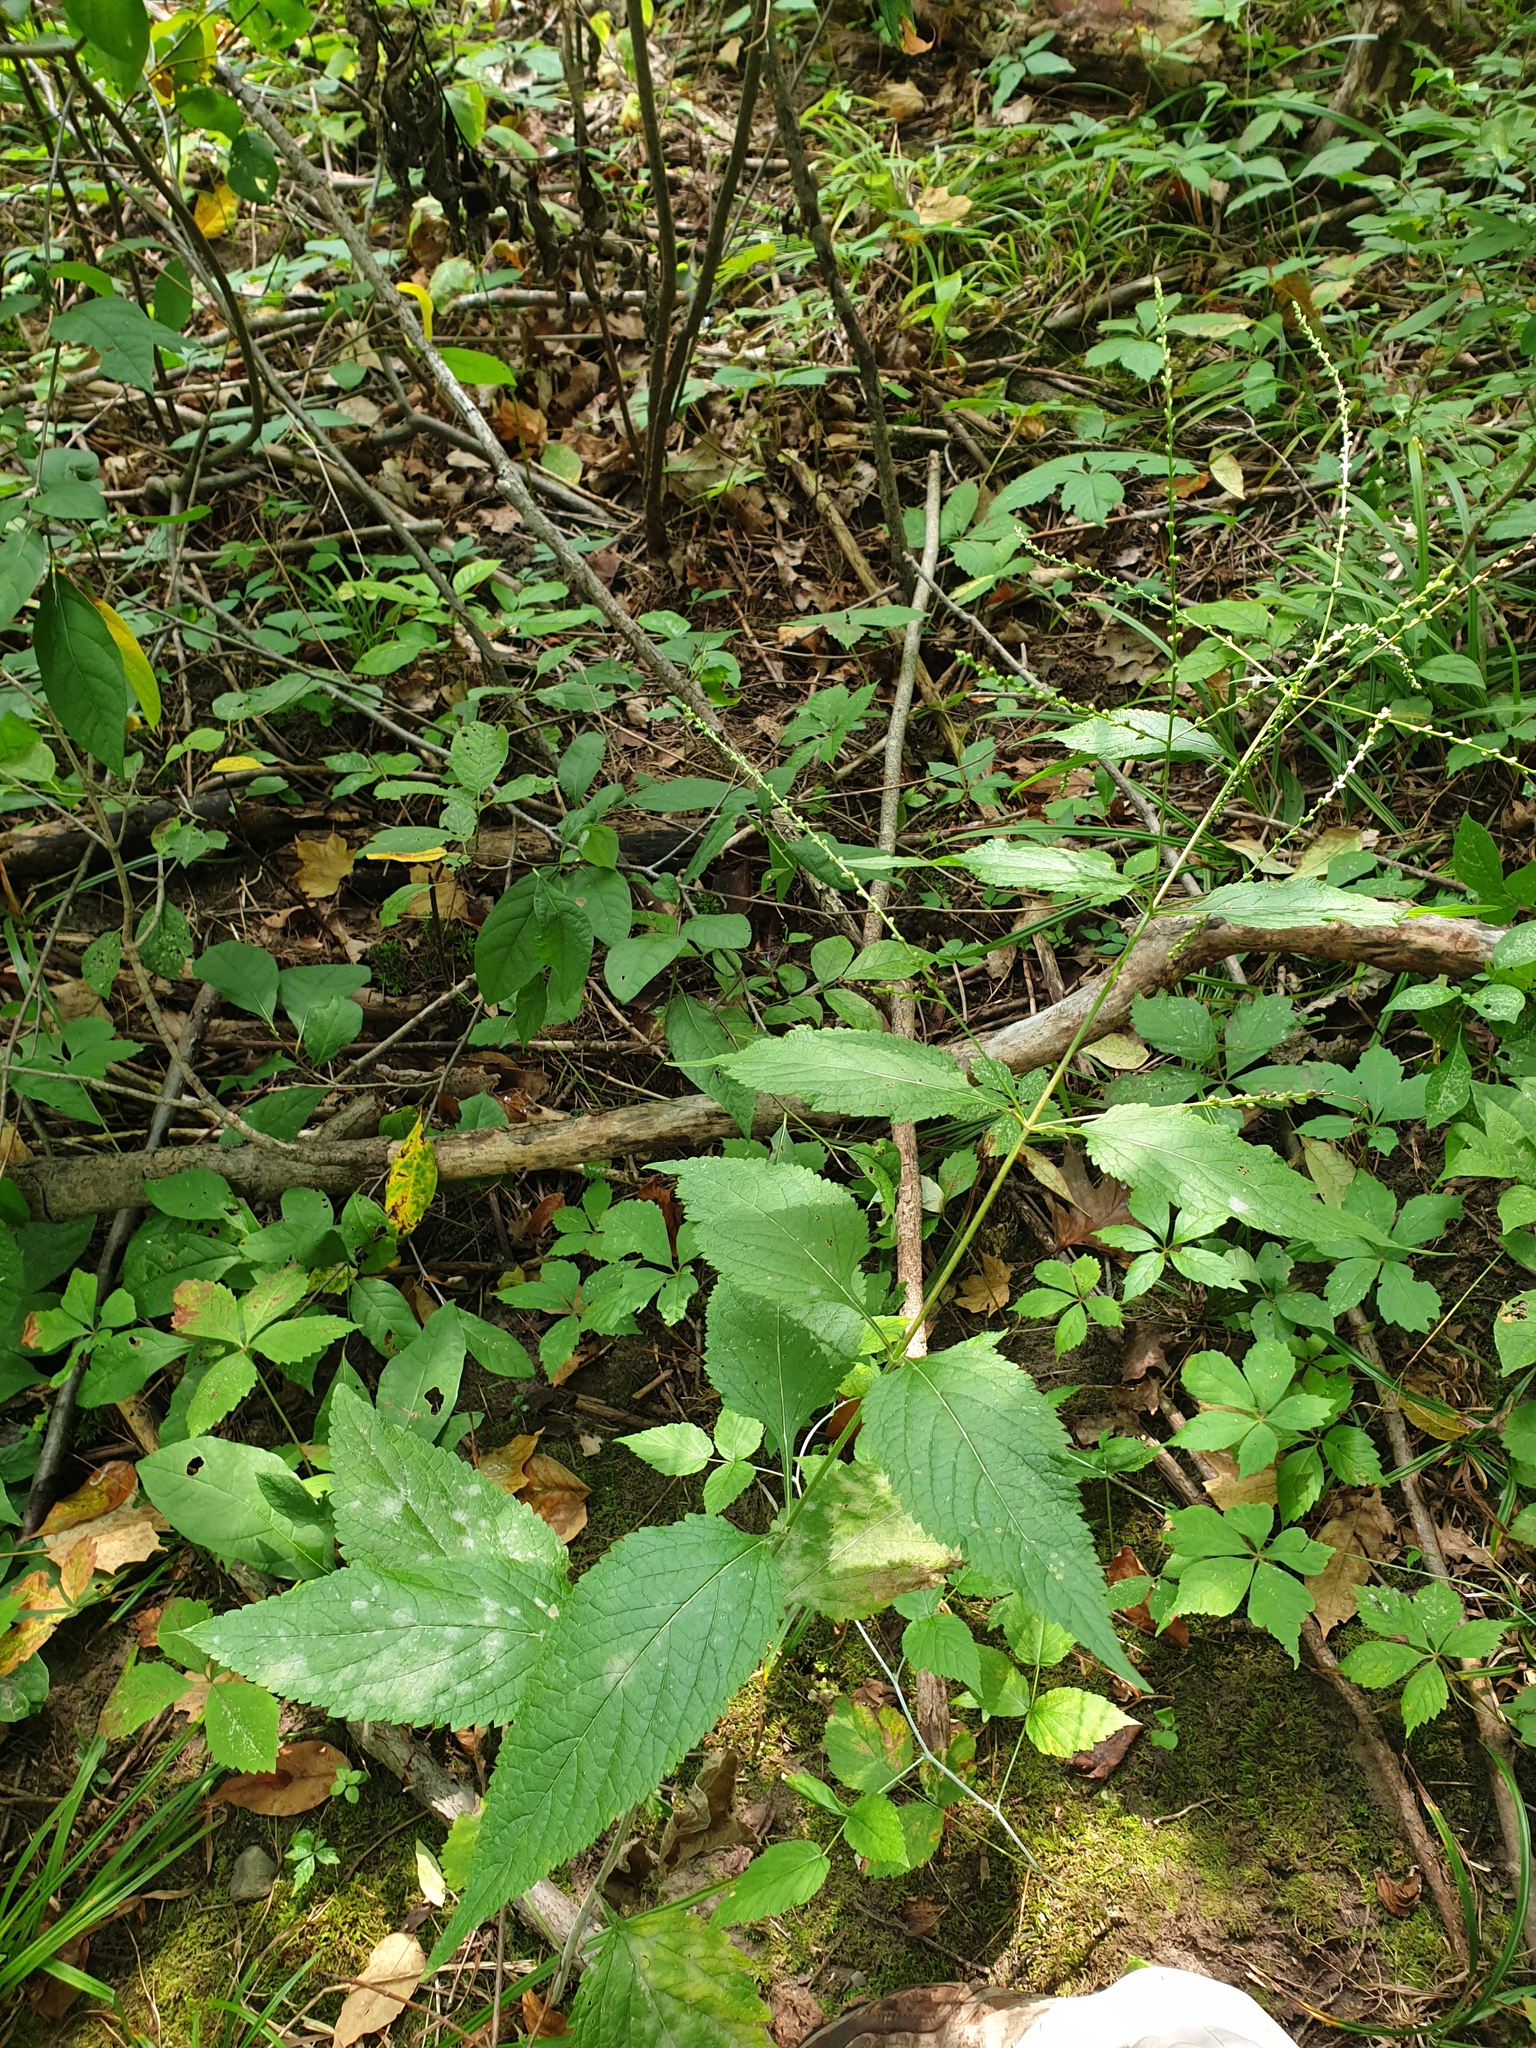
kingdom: Plantae
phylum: Tracheophyta
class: Magnoliopsida
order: Lamiales
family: Verbenaceae
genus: Verbena
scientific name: Verbena urticifolia
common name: Nettle-leaved vervain
